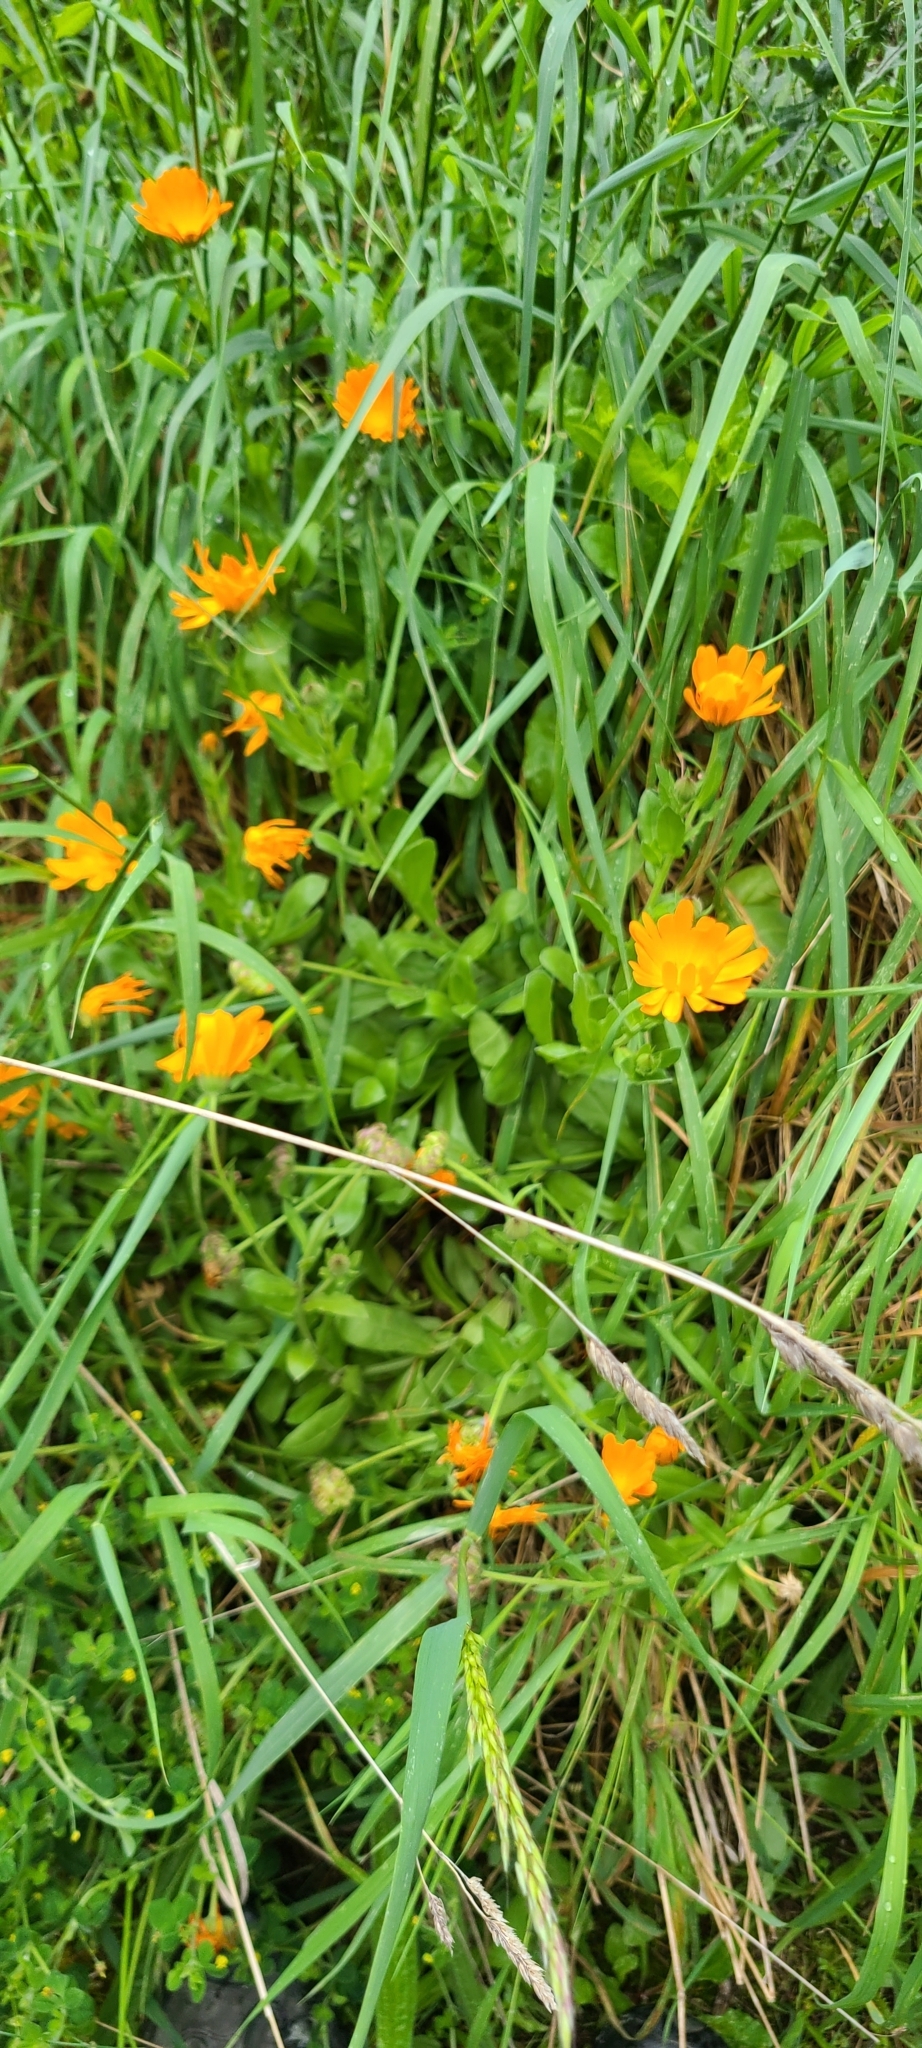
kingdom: Plantae
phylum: Tracheophyta
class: Magnoliopsida
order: Asterales
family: Asteraceae
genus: Calendula
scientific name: Calendula officinalis
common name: Pot marigold
